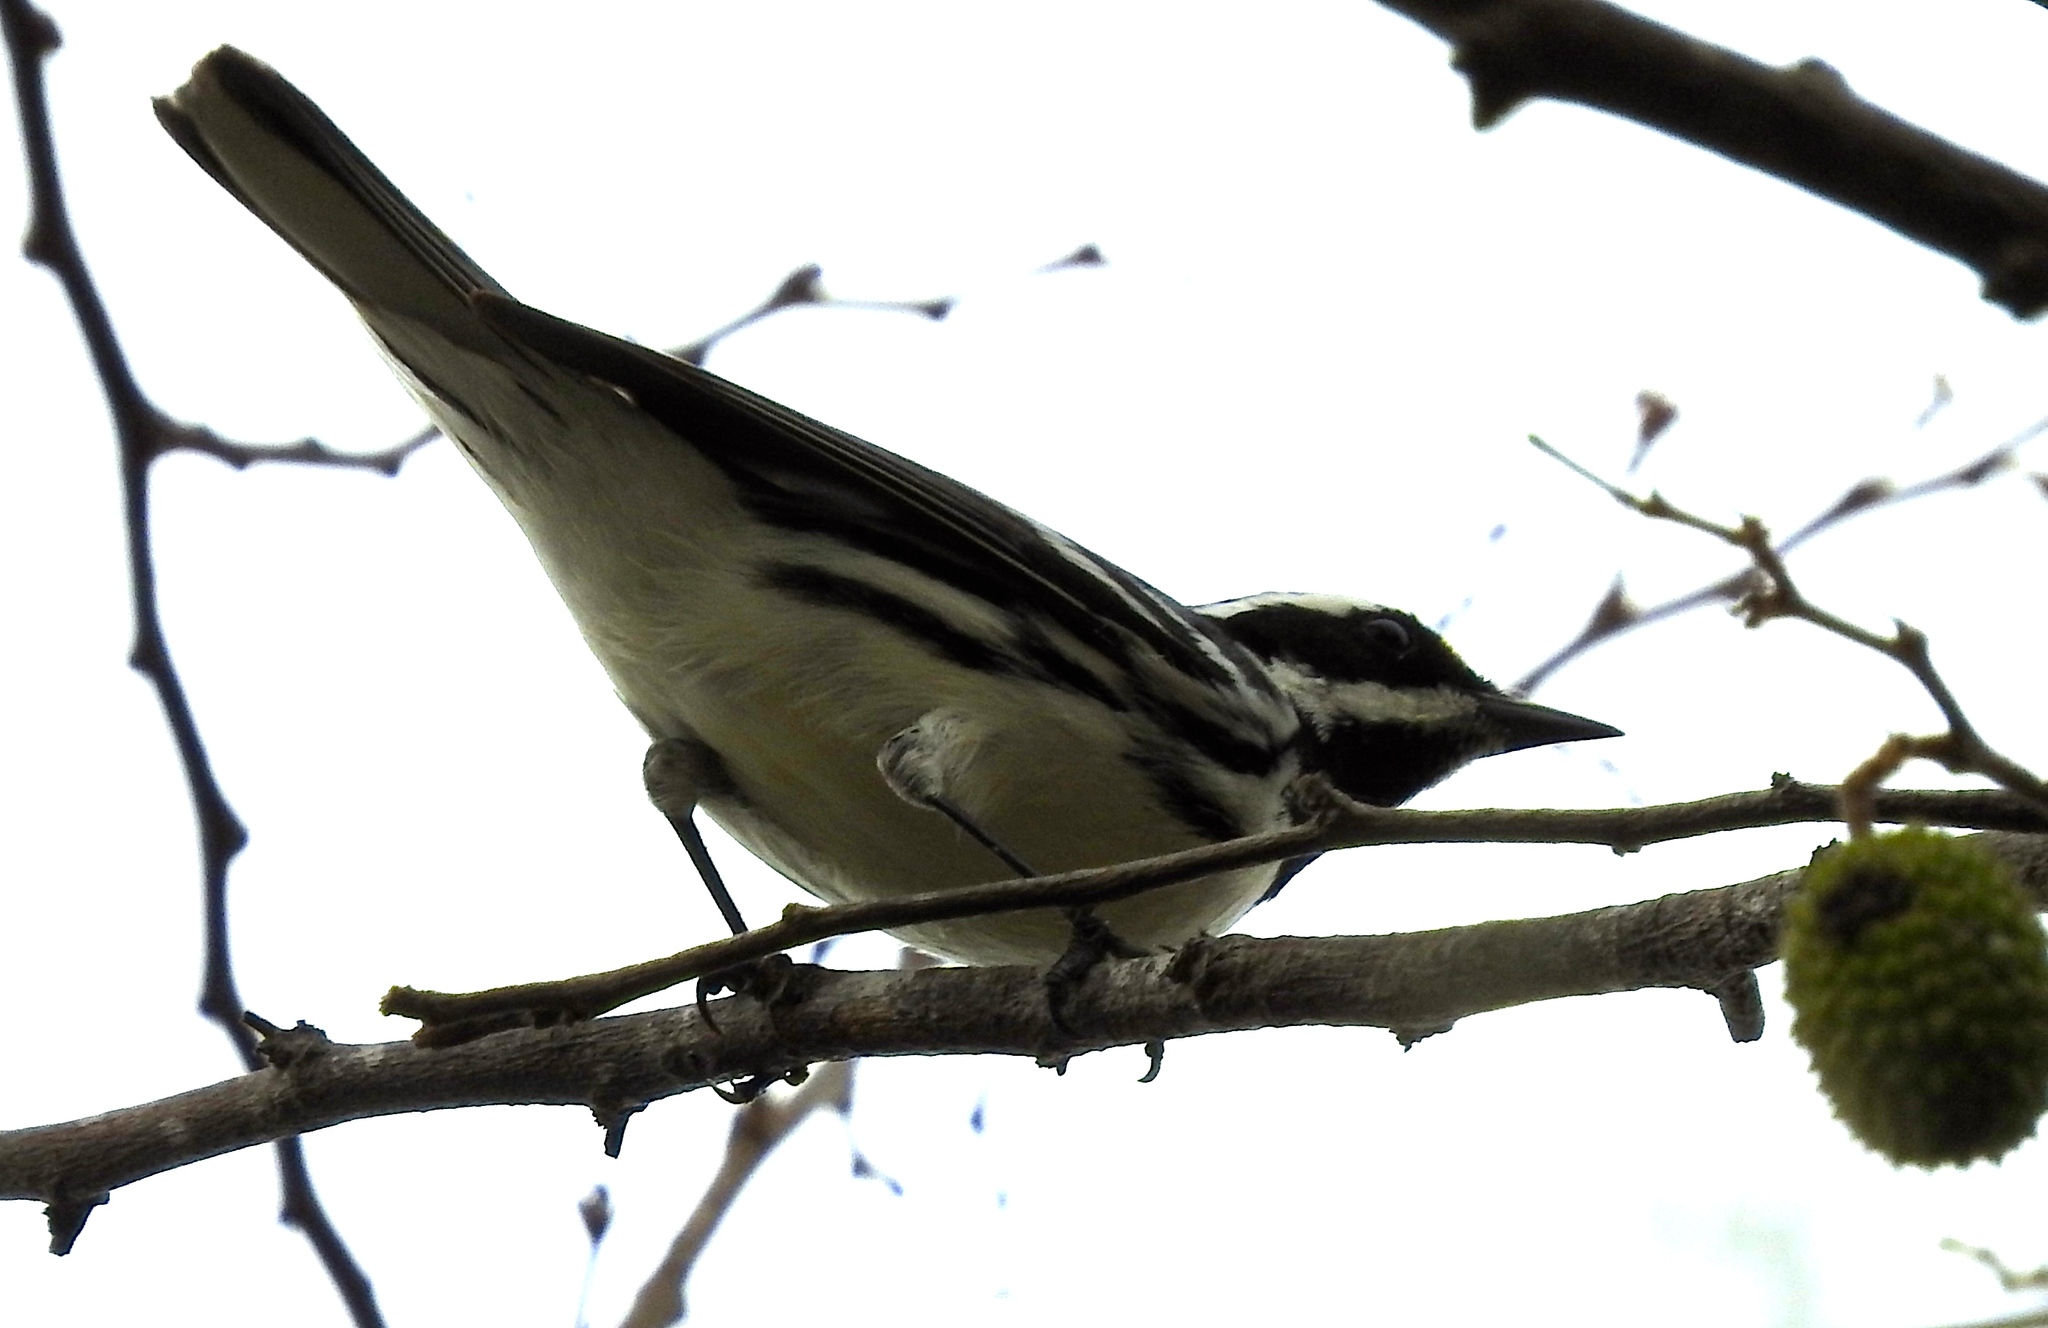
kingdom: Animalia
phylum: Chordata
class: Aves
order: Passeriformes
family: Parulidae
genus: Setophaga
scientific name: Setophaga nigrescens
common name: Black-throated gray warbler
